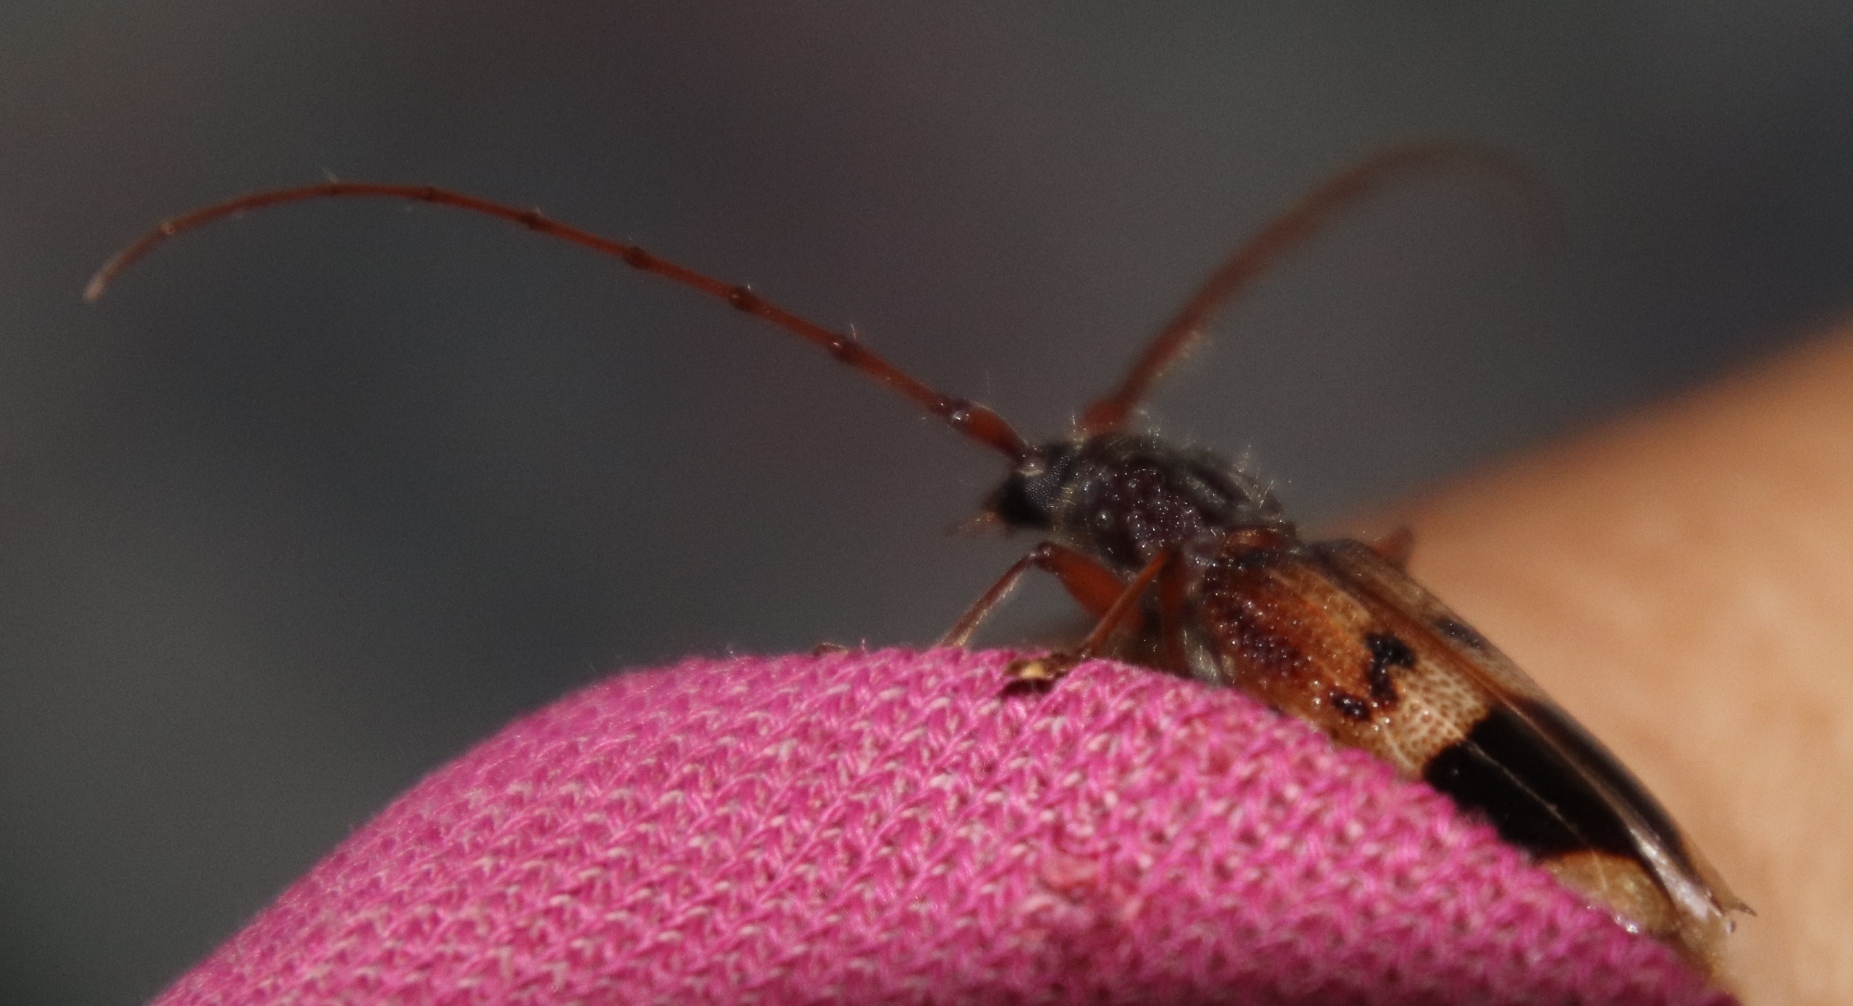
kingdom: Animalia
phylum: Arthropoda
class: Insecta
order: Coleoptera
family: Cerambycidae
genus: Phoracantha
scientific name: Phoracantha recurva
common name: Eucalyptus longhorned borer
